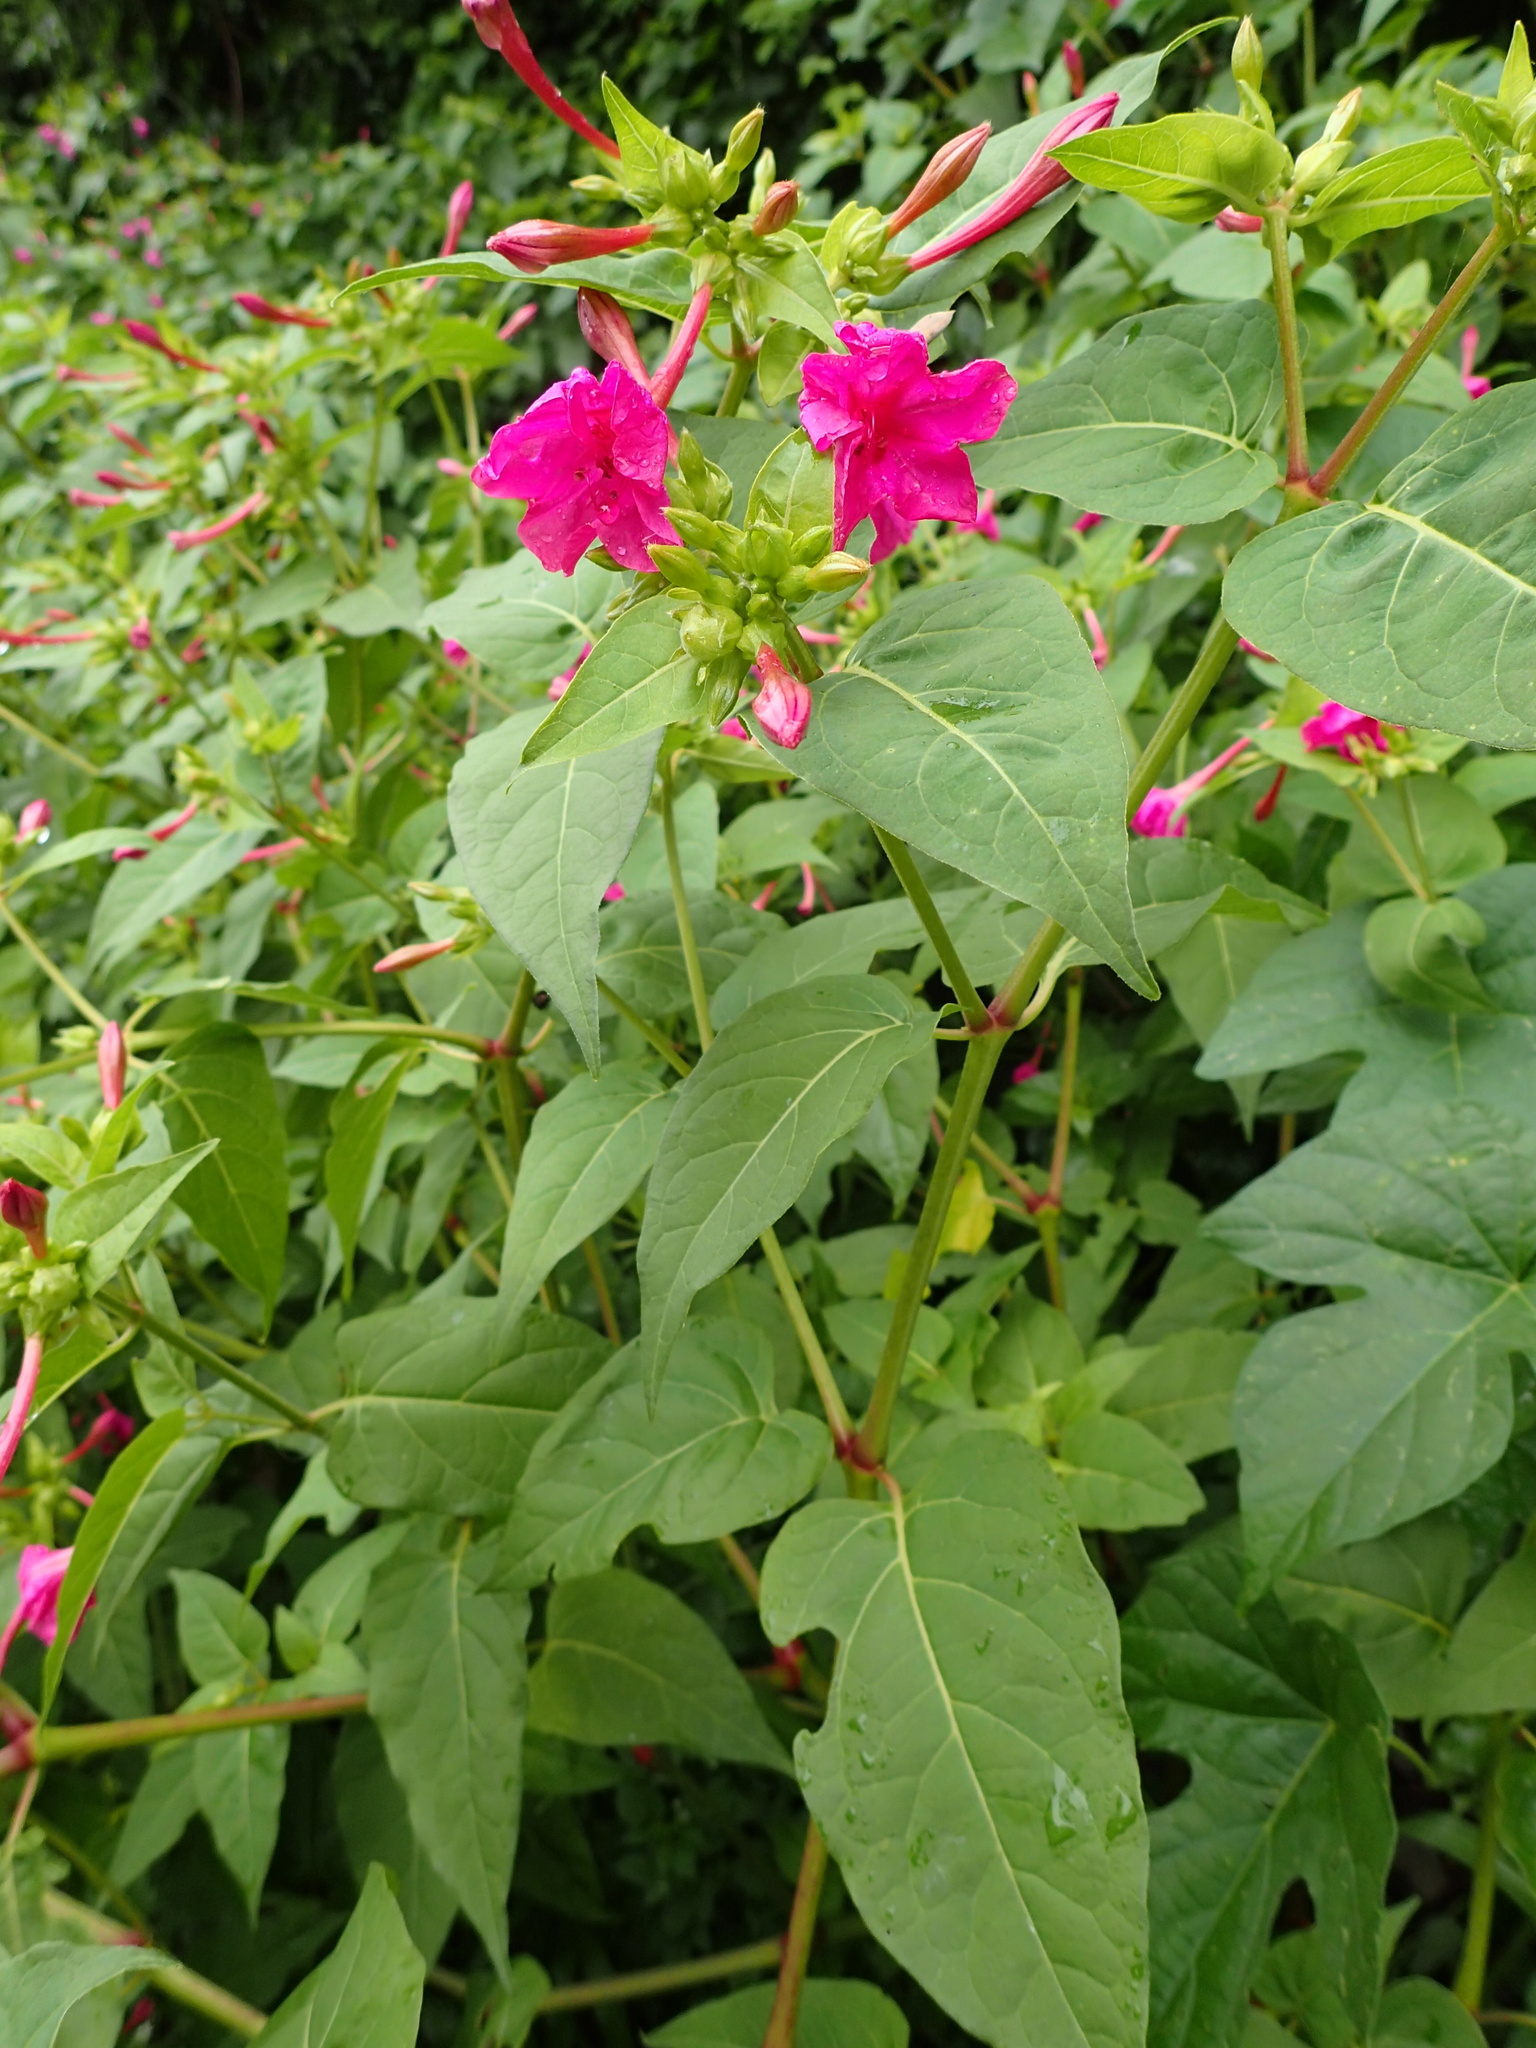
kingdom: Plantae
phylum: Tracheophyta
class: Magnoliopsida
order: Caryophyllales
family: Nyctaginaceae
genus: Mirabilis
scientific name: Mirabilis jalapa
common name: Marvel-of-peru
